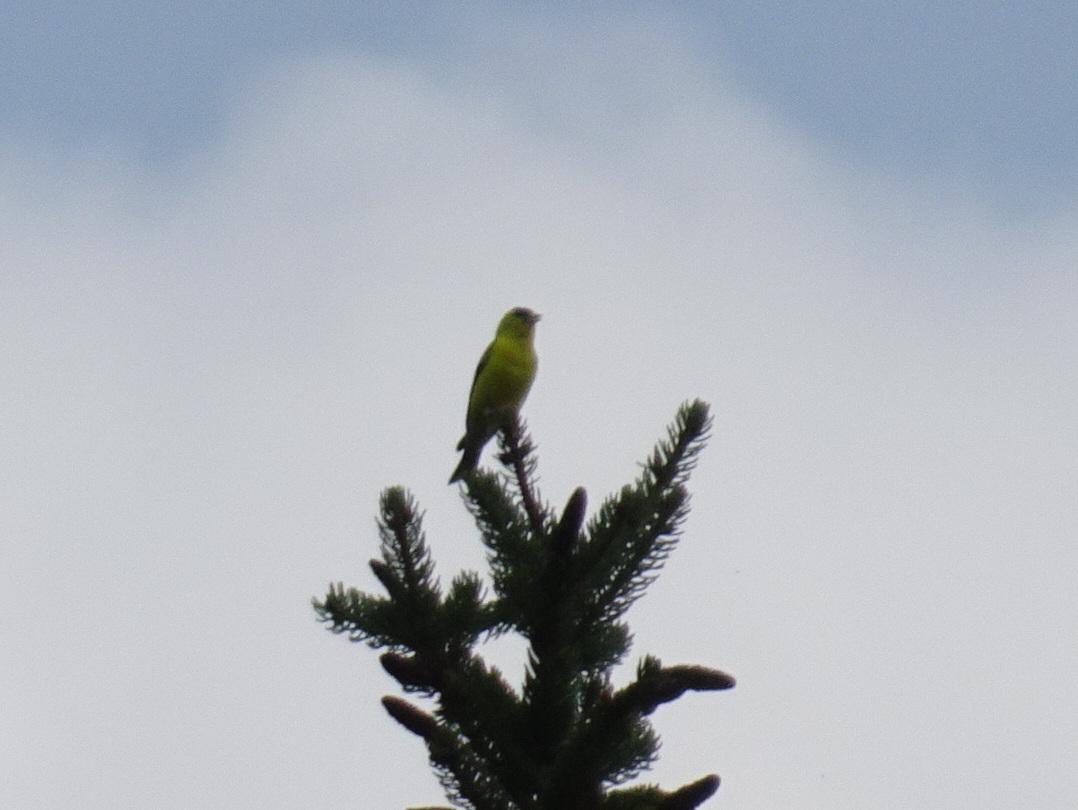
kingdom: Animalia
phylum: Chordata
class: Aves
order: Passeriformes
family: Fringillidae
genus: Spinus
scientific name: Spinus tristis
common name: American goldfinch
